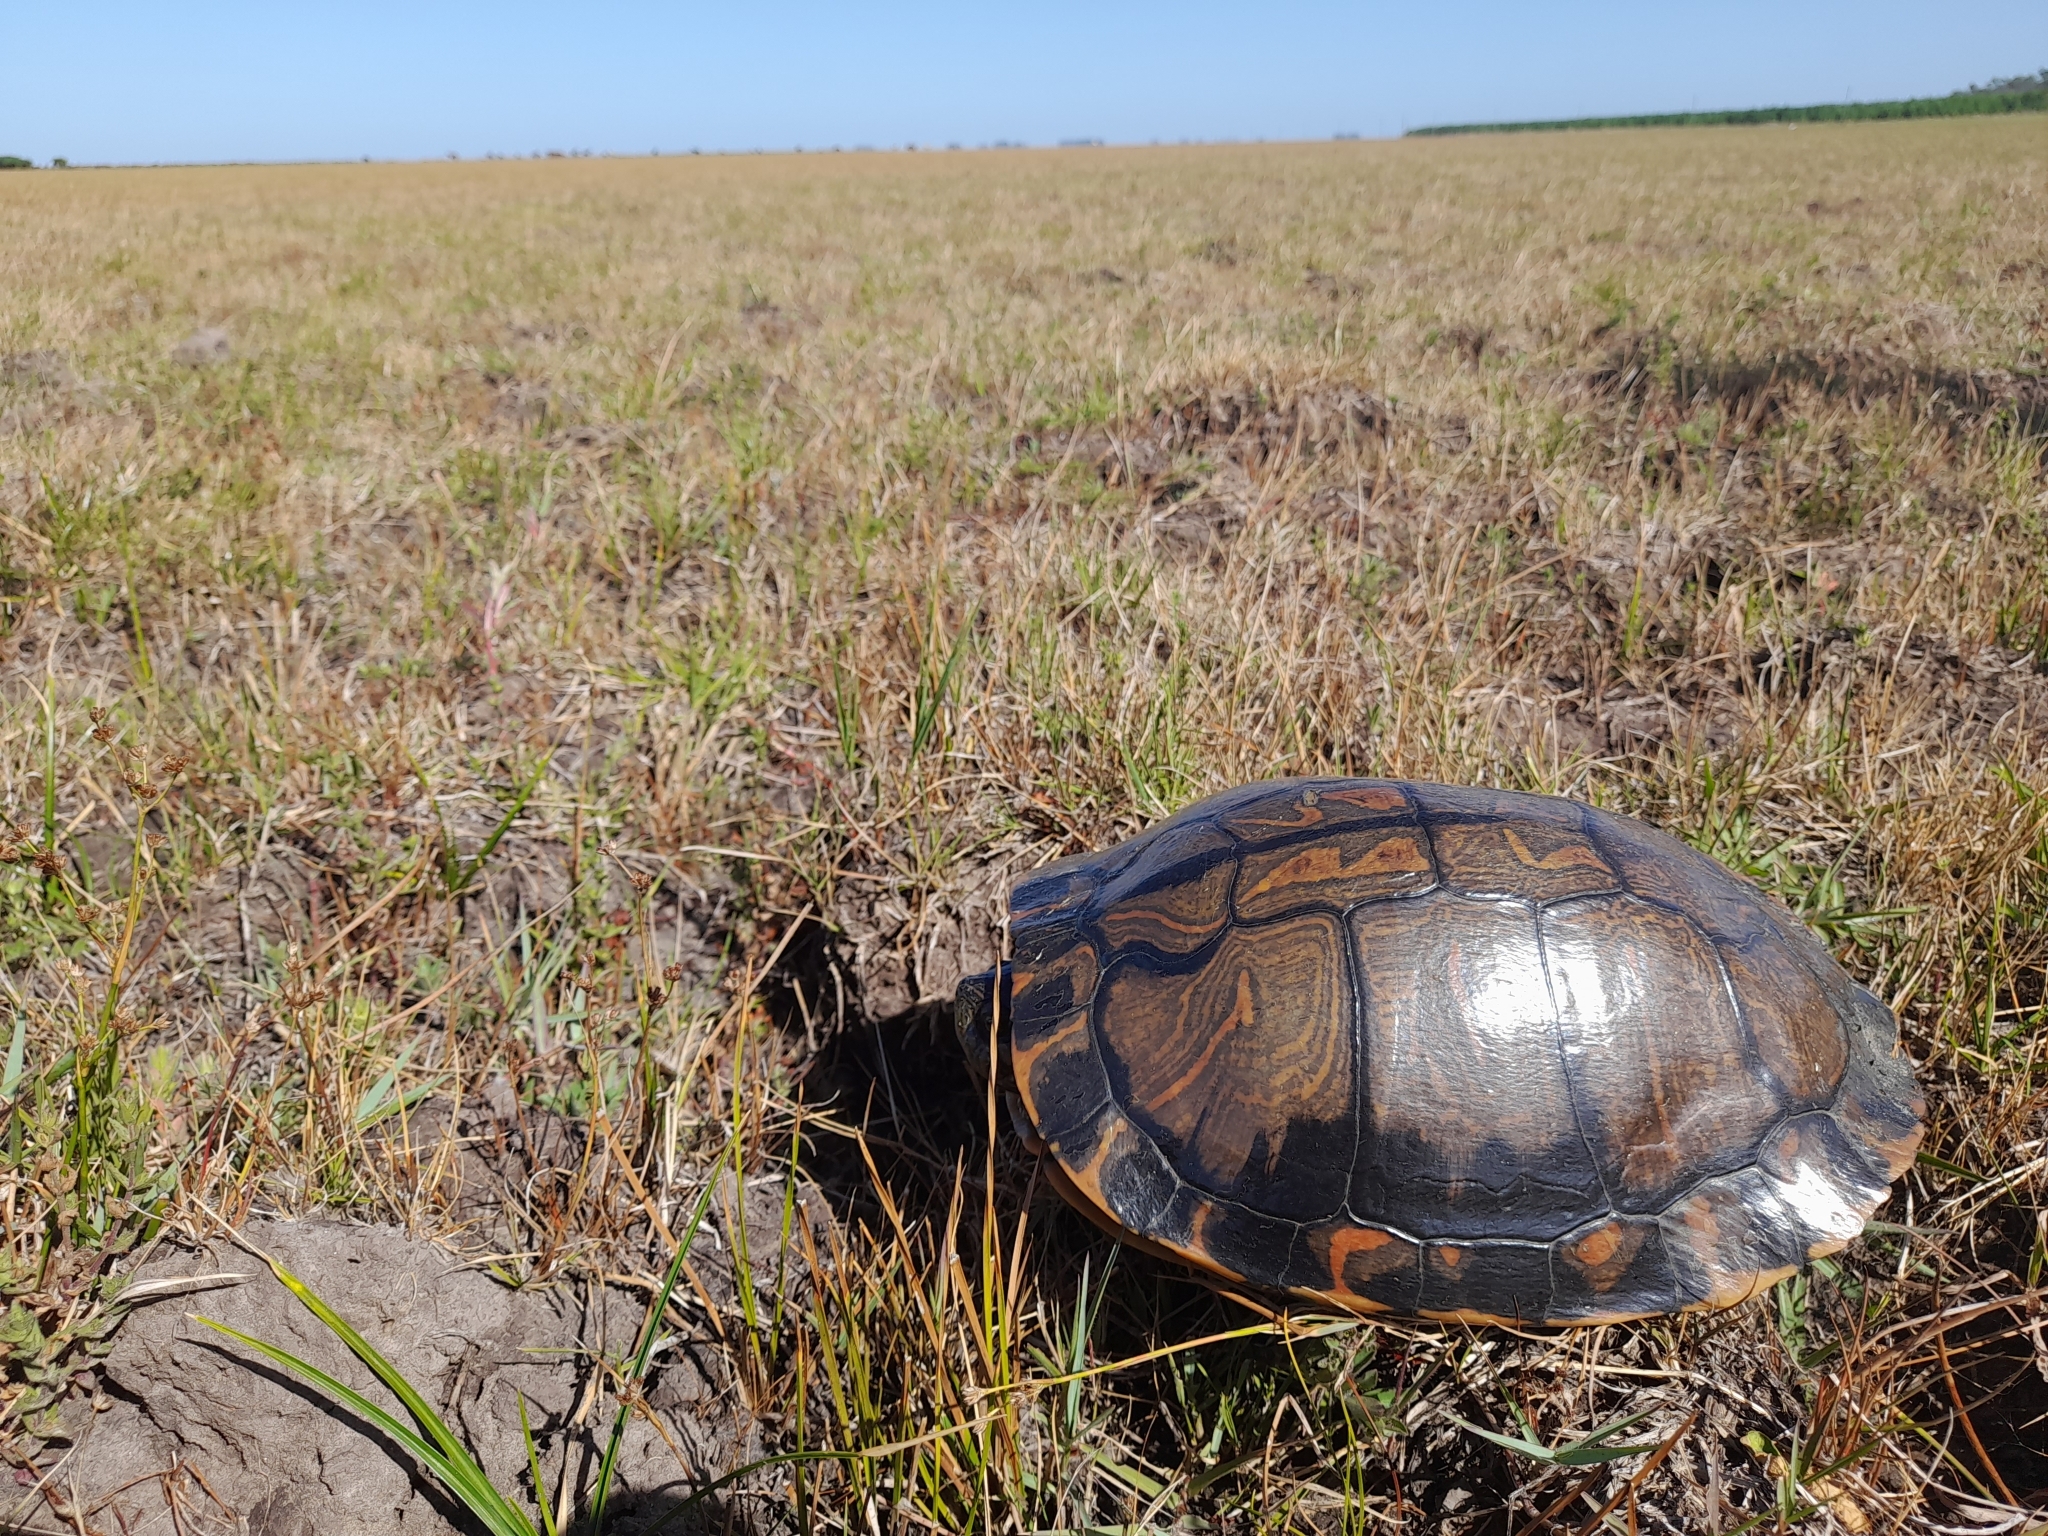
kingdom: Animalia
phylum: Chordata
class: Testudines
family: Emydidae
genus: Trachemys
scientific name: Trachemys dorbigni
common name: Black-bellied slider
